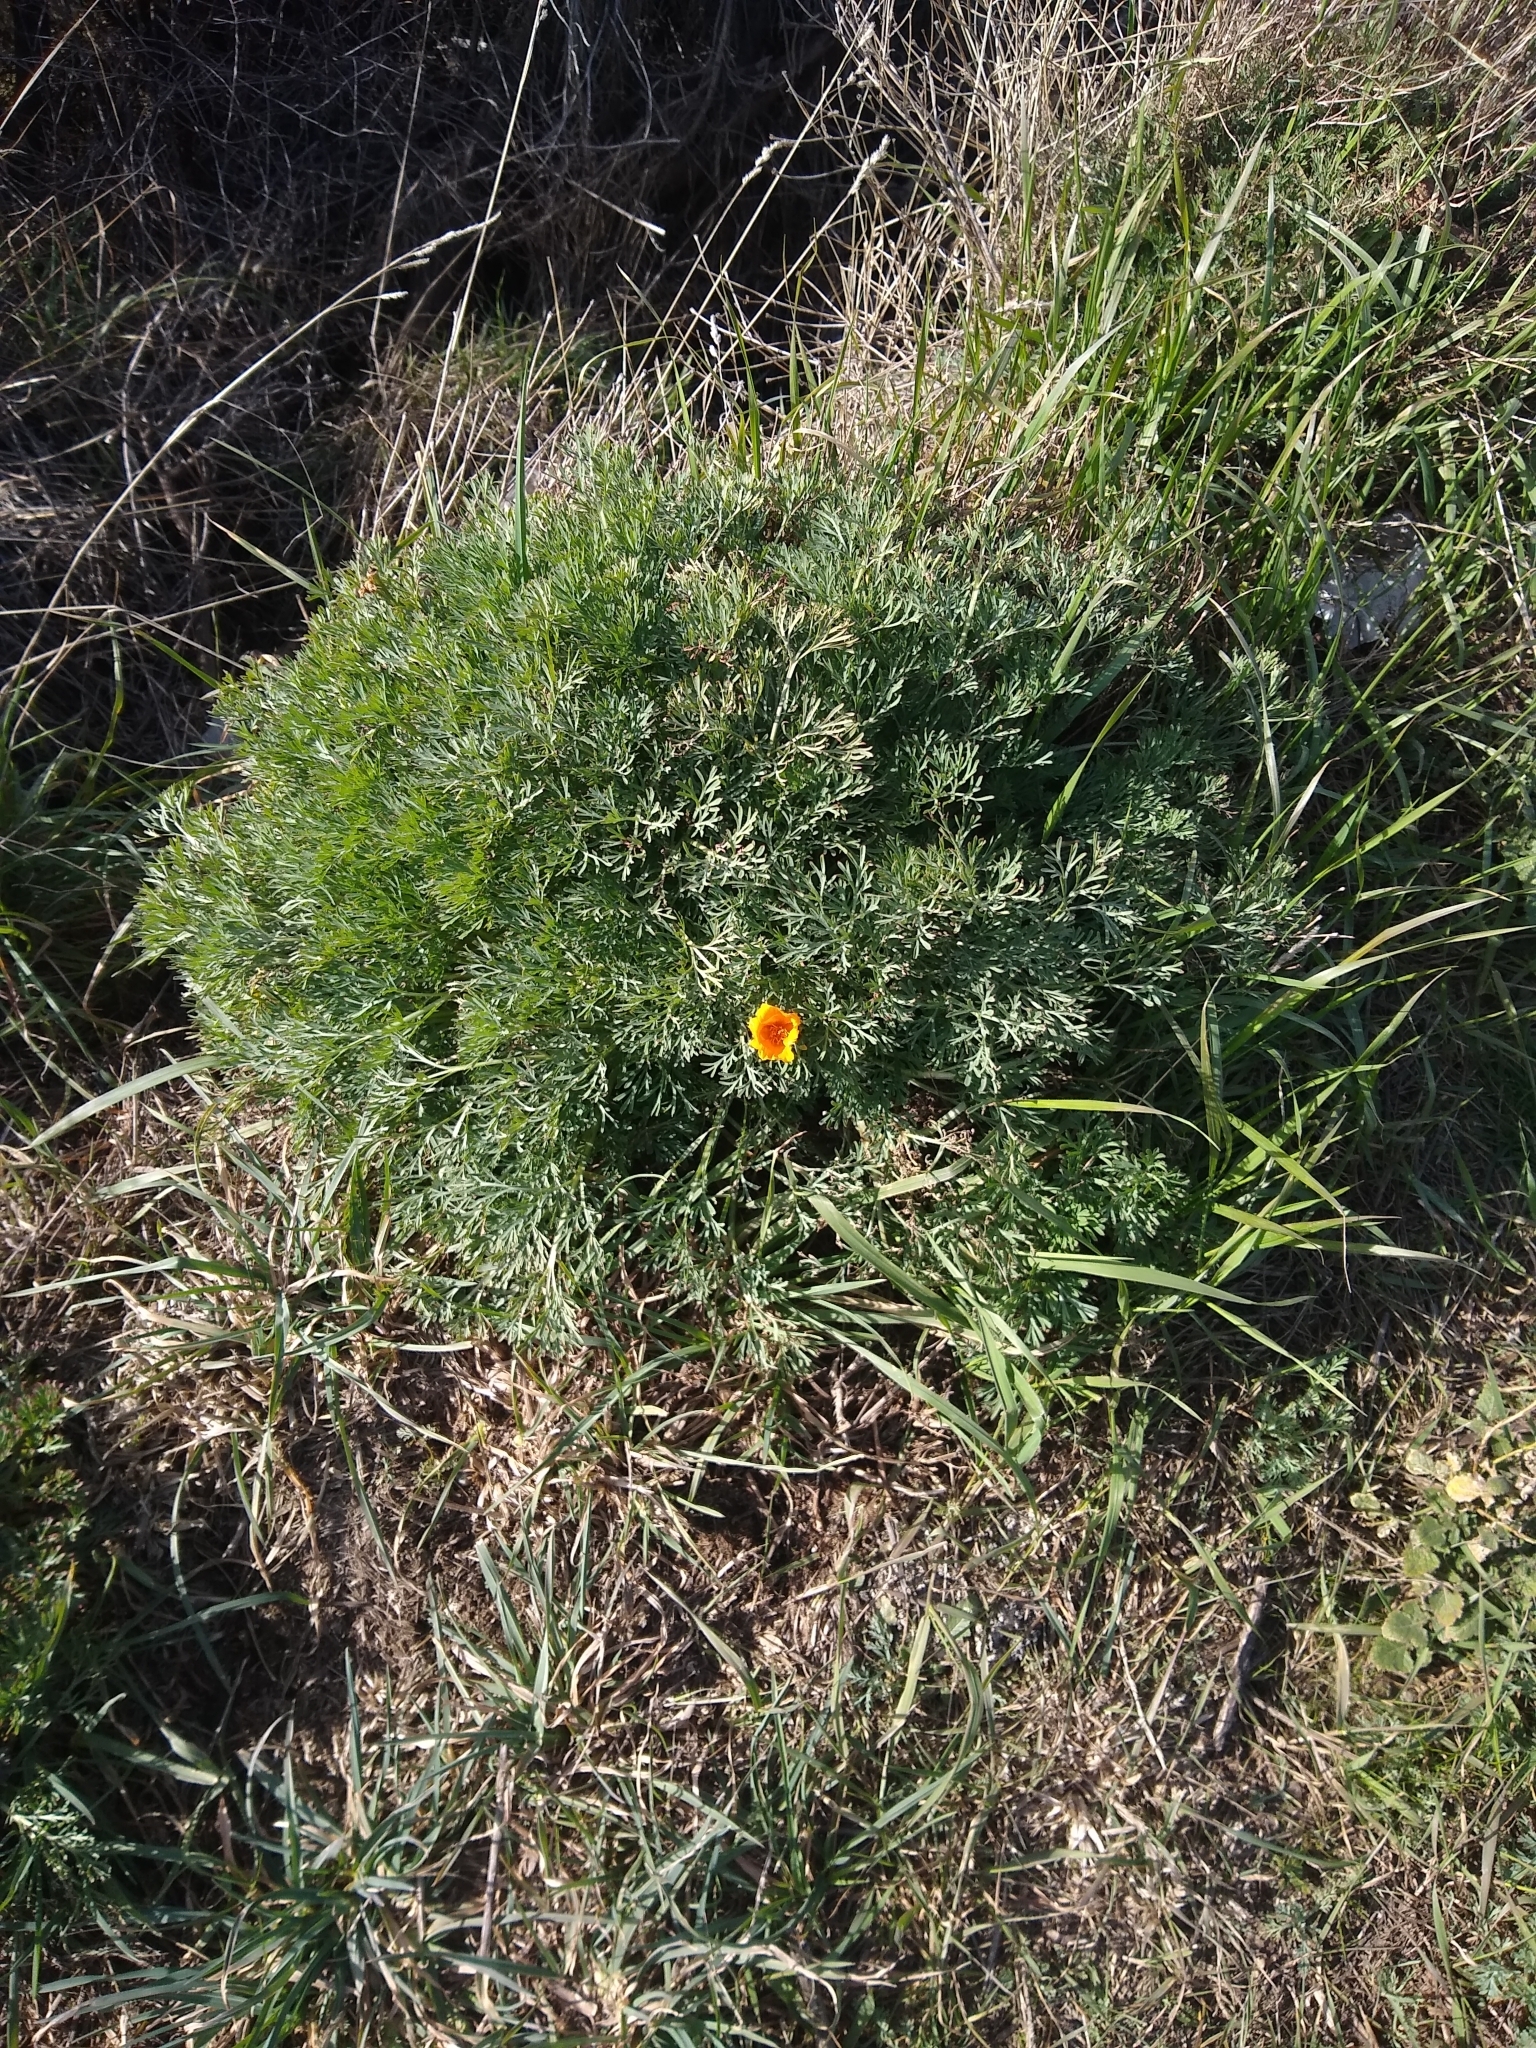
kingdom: Plantae
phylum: Tracheophyta
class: Magnoliopsida
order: Ranunculales
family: Papaveraceae
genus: Eschscholzia
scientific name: Eschscholzia californica
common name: California poppy
